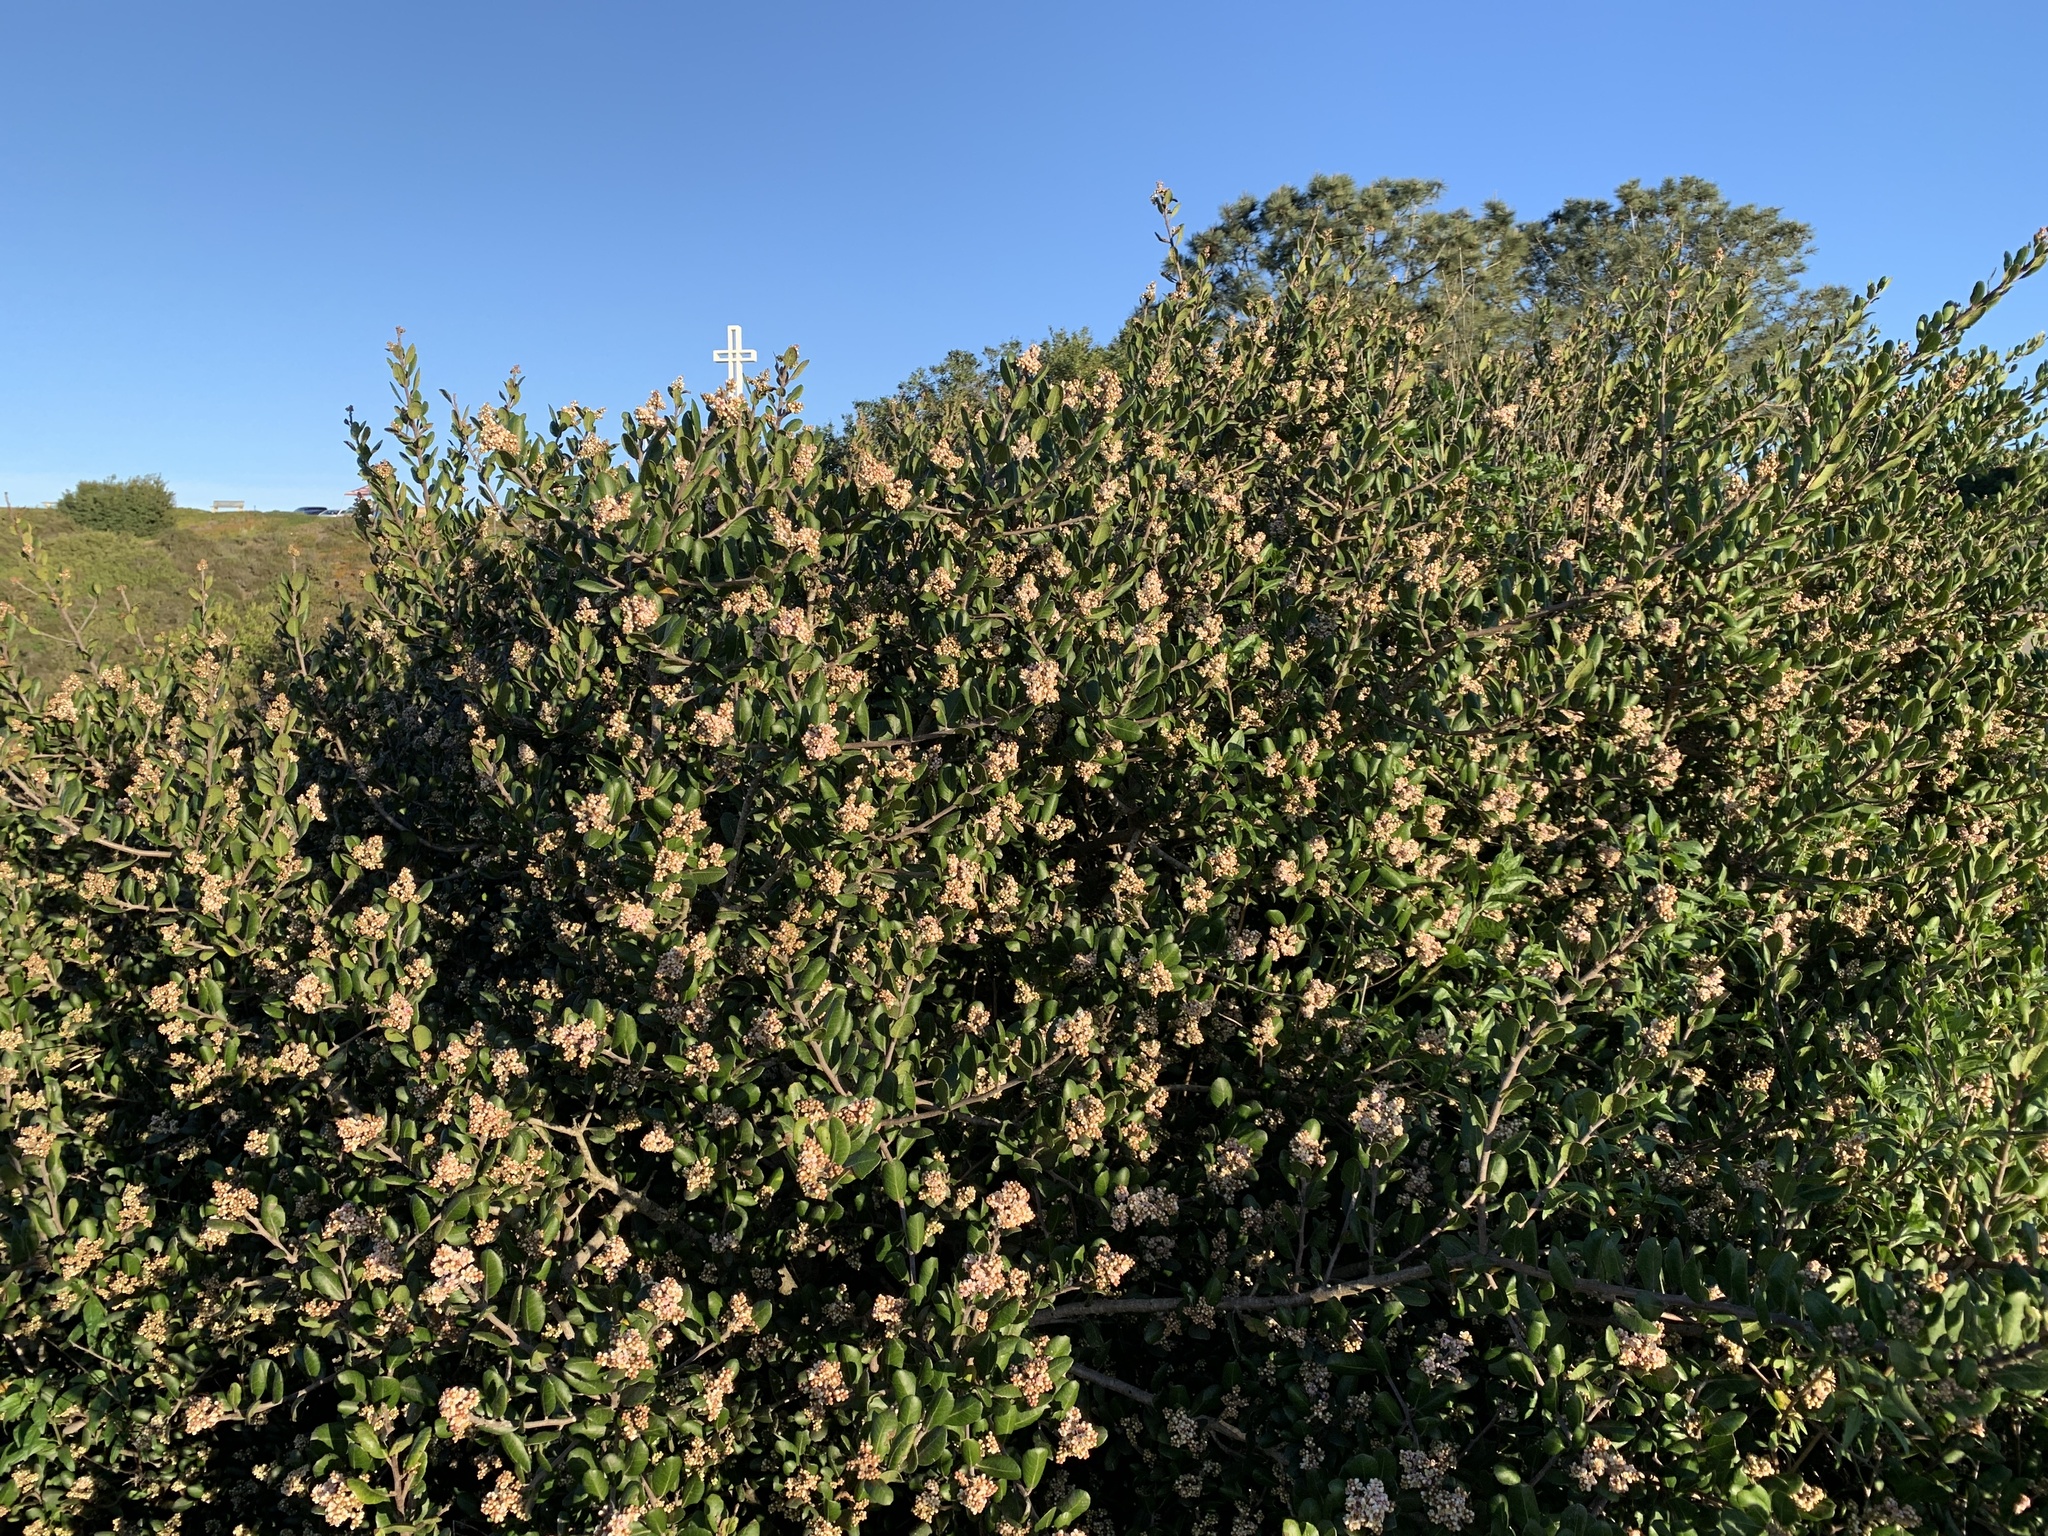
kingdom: Plantae
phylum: Tracheophyta
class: Magnoliopsida
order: Sapindales
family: Anacardiaceae
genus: Rhus
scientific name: Rhus integrifolia
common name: Lemonade sumac
